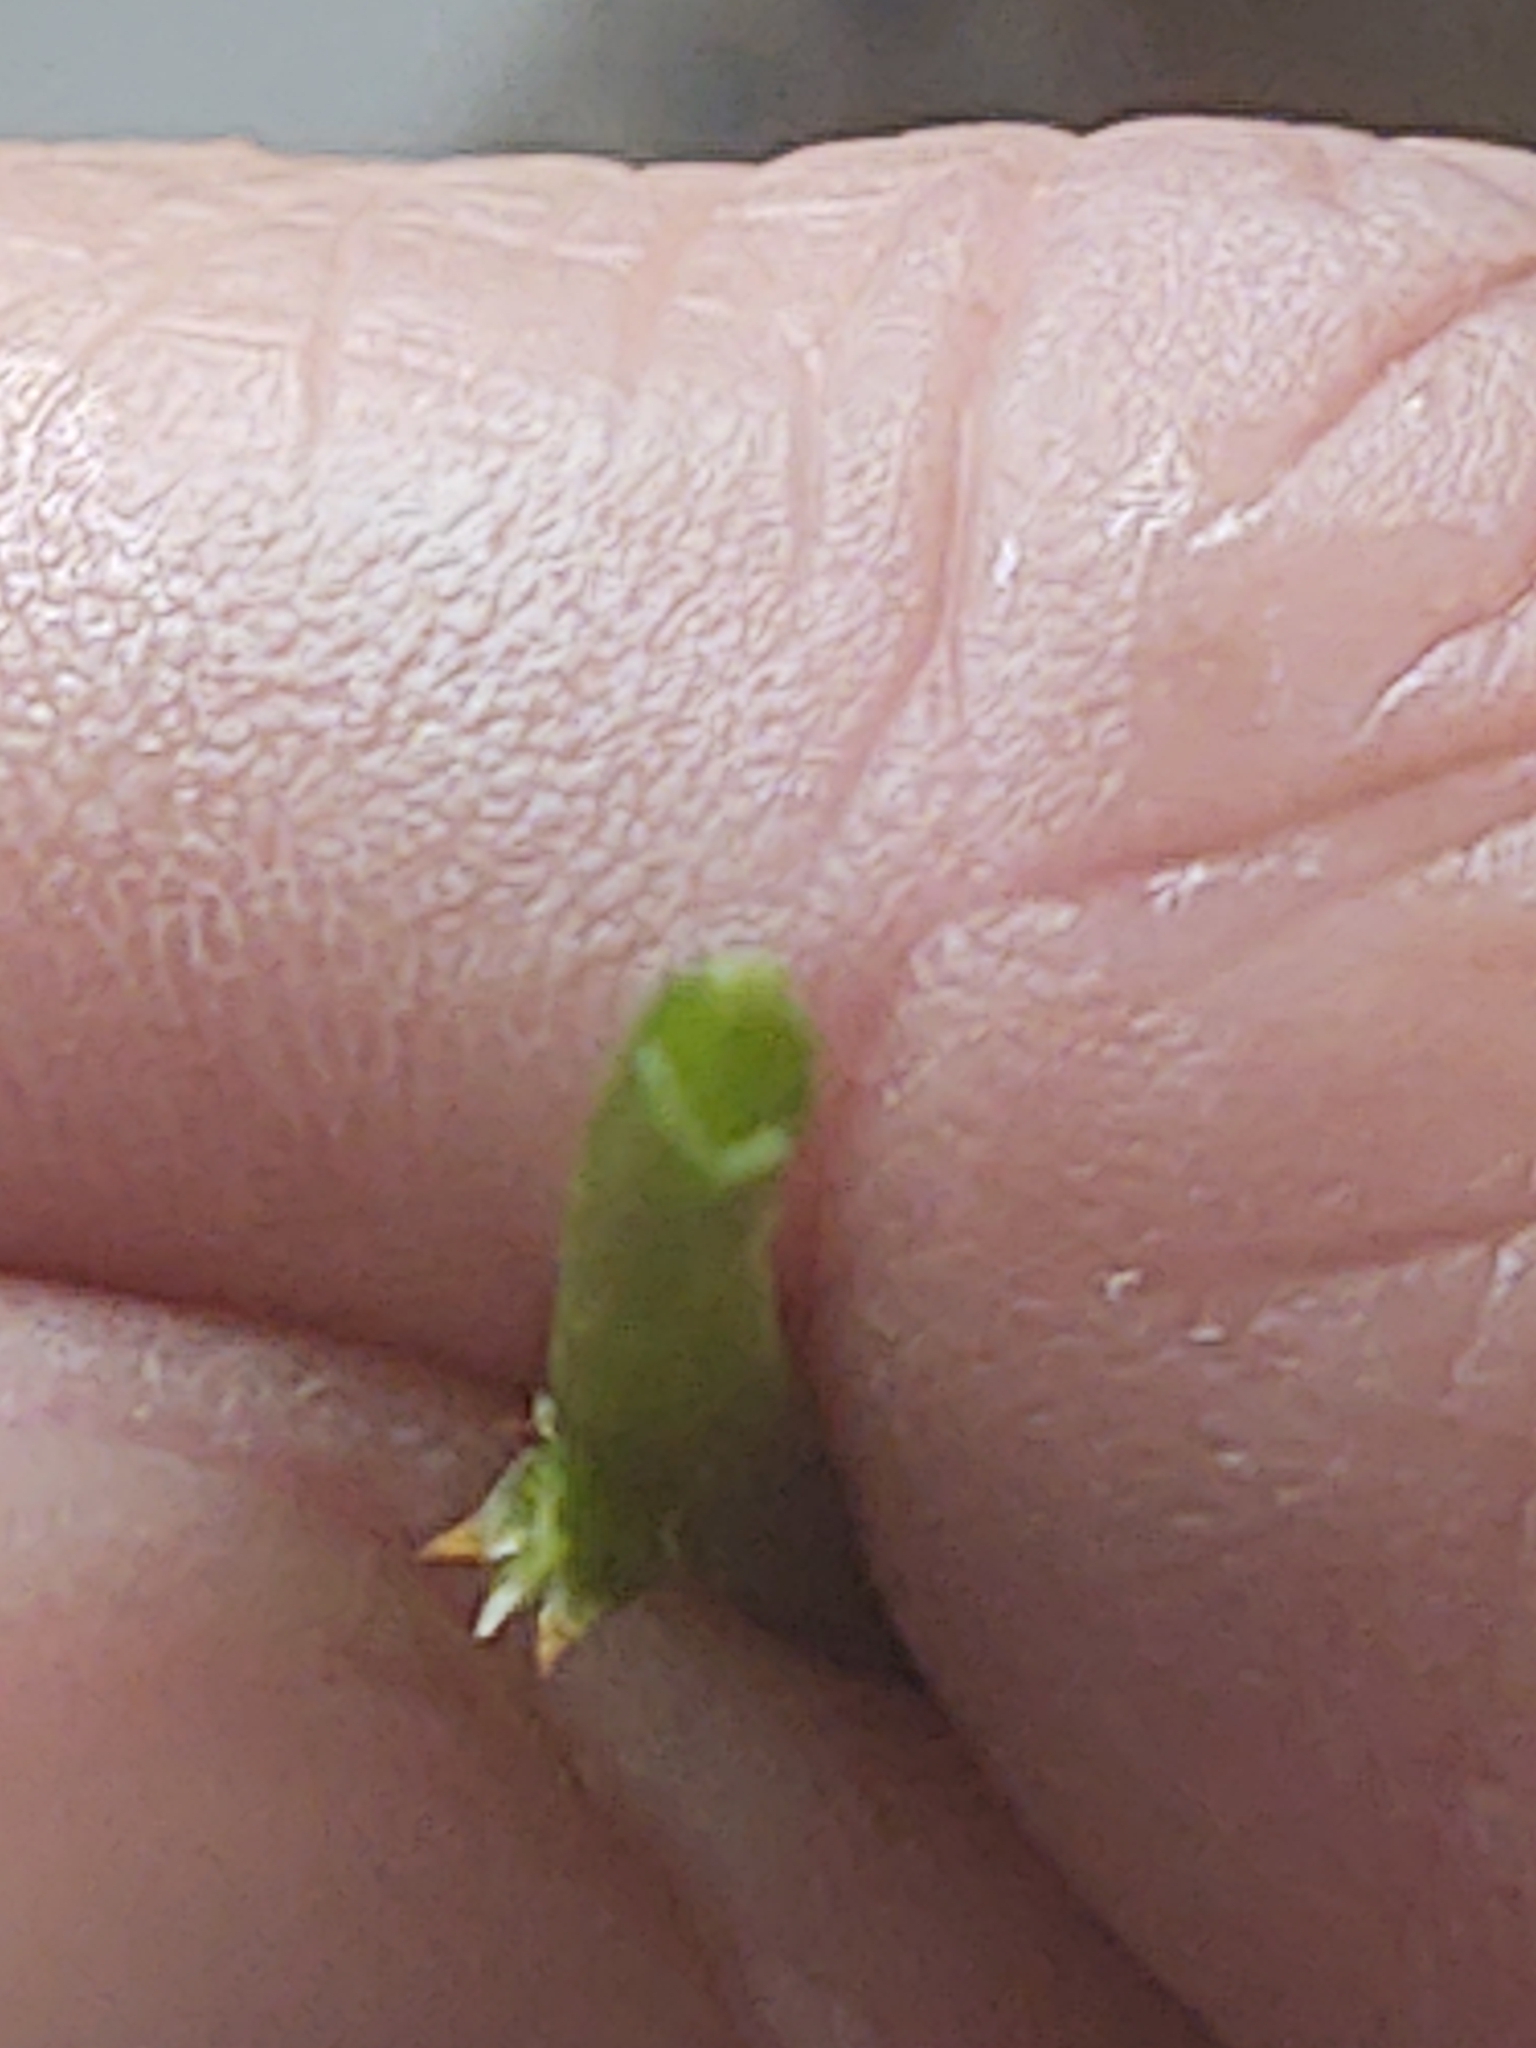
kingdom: Plantae
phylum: Tracheophyta
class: Magnoliopsida
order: Celastrales
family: Celastraceae
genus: Celastrus
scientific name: Celastrus orbiculatus
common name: Oriental bittersweet
